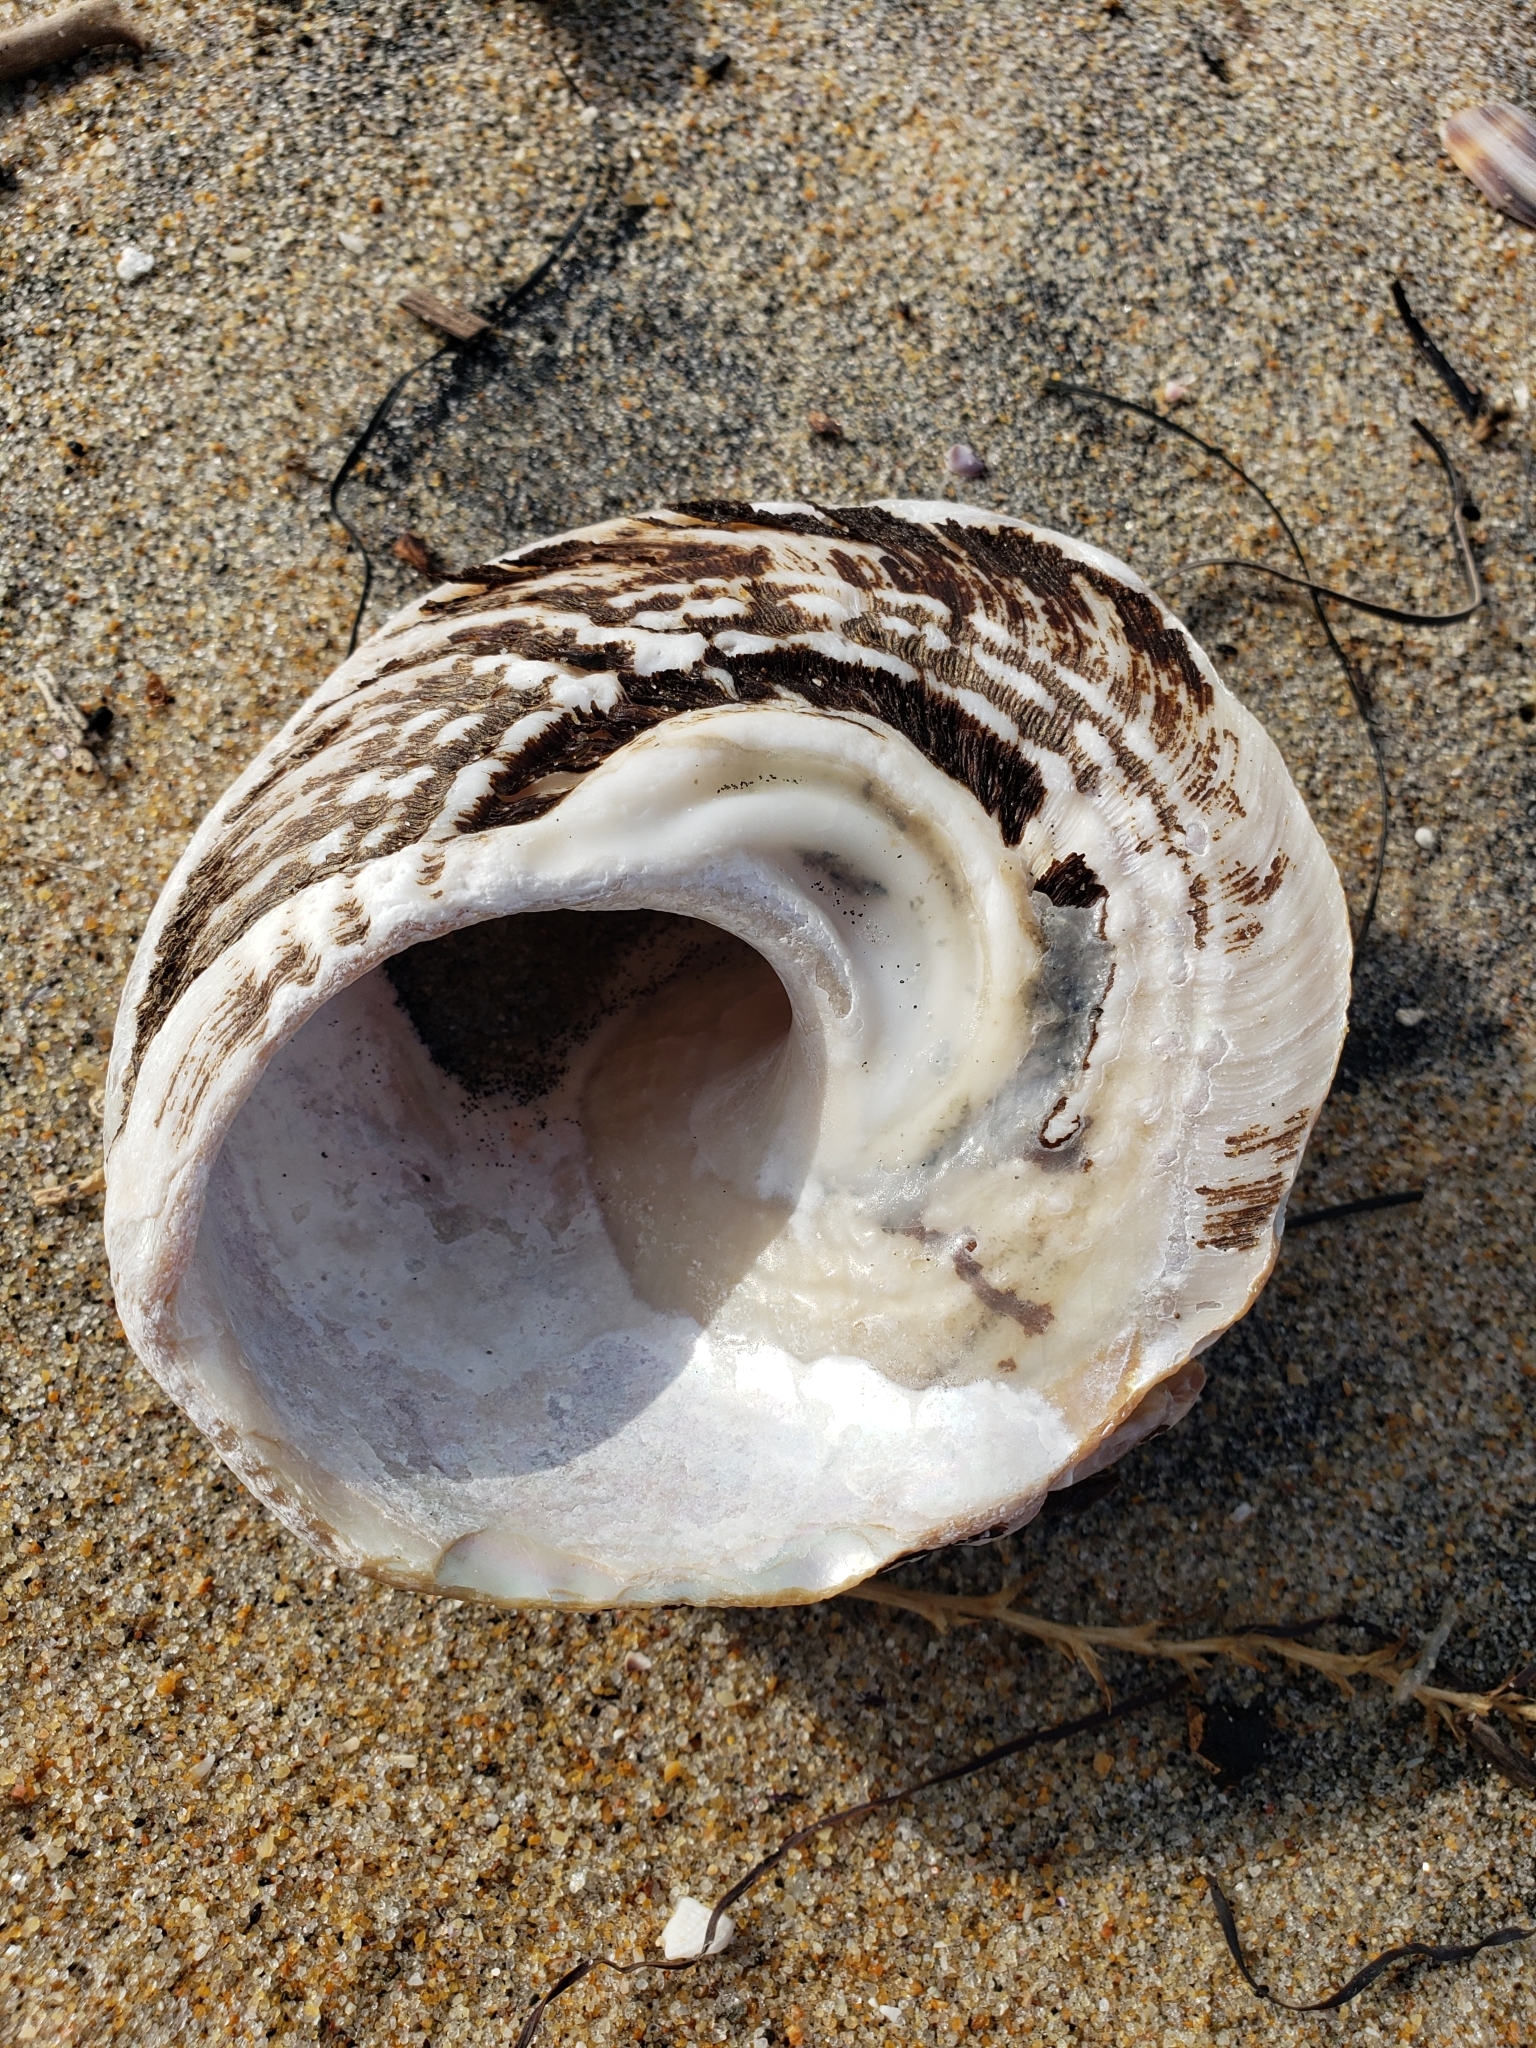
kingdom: Animalia
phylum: Mollusca
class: Gastropoda
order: Trochida
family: Turbinidae
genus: Megastraea
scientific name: Megastraea undosa
